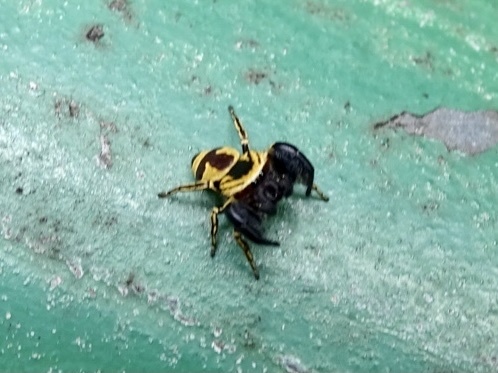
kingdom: Animalia
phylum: Arthropoda
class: Arachnida
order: Araneae
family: Salticidae
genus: Rhene
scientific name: Rhene flavicomans
